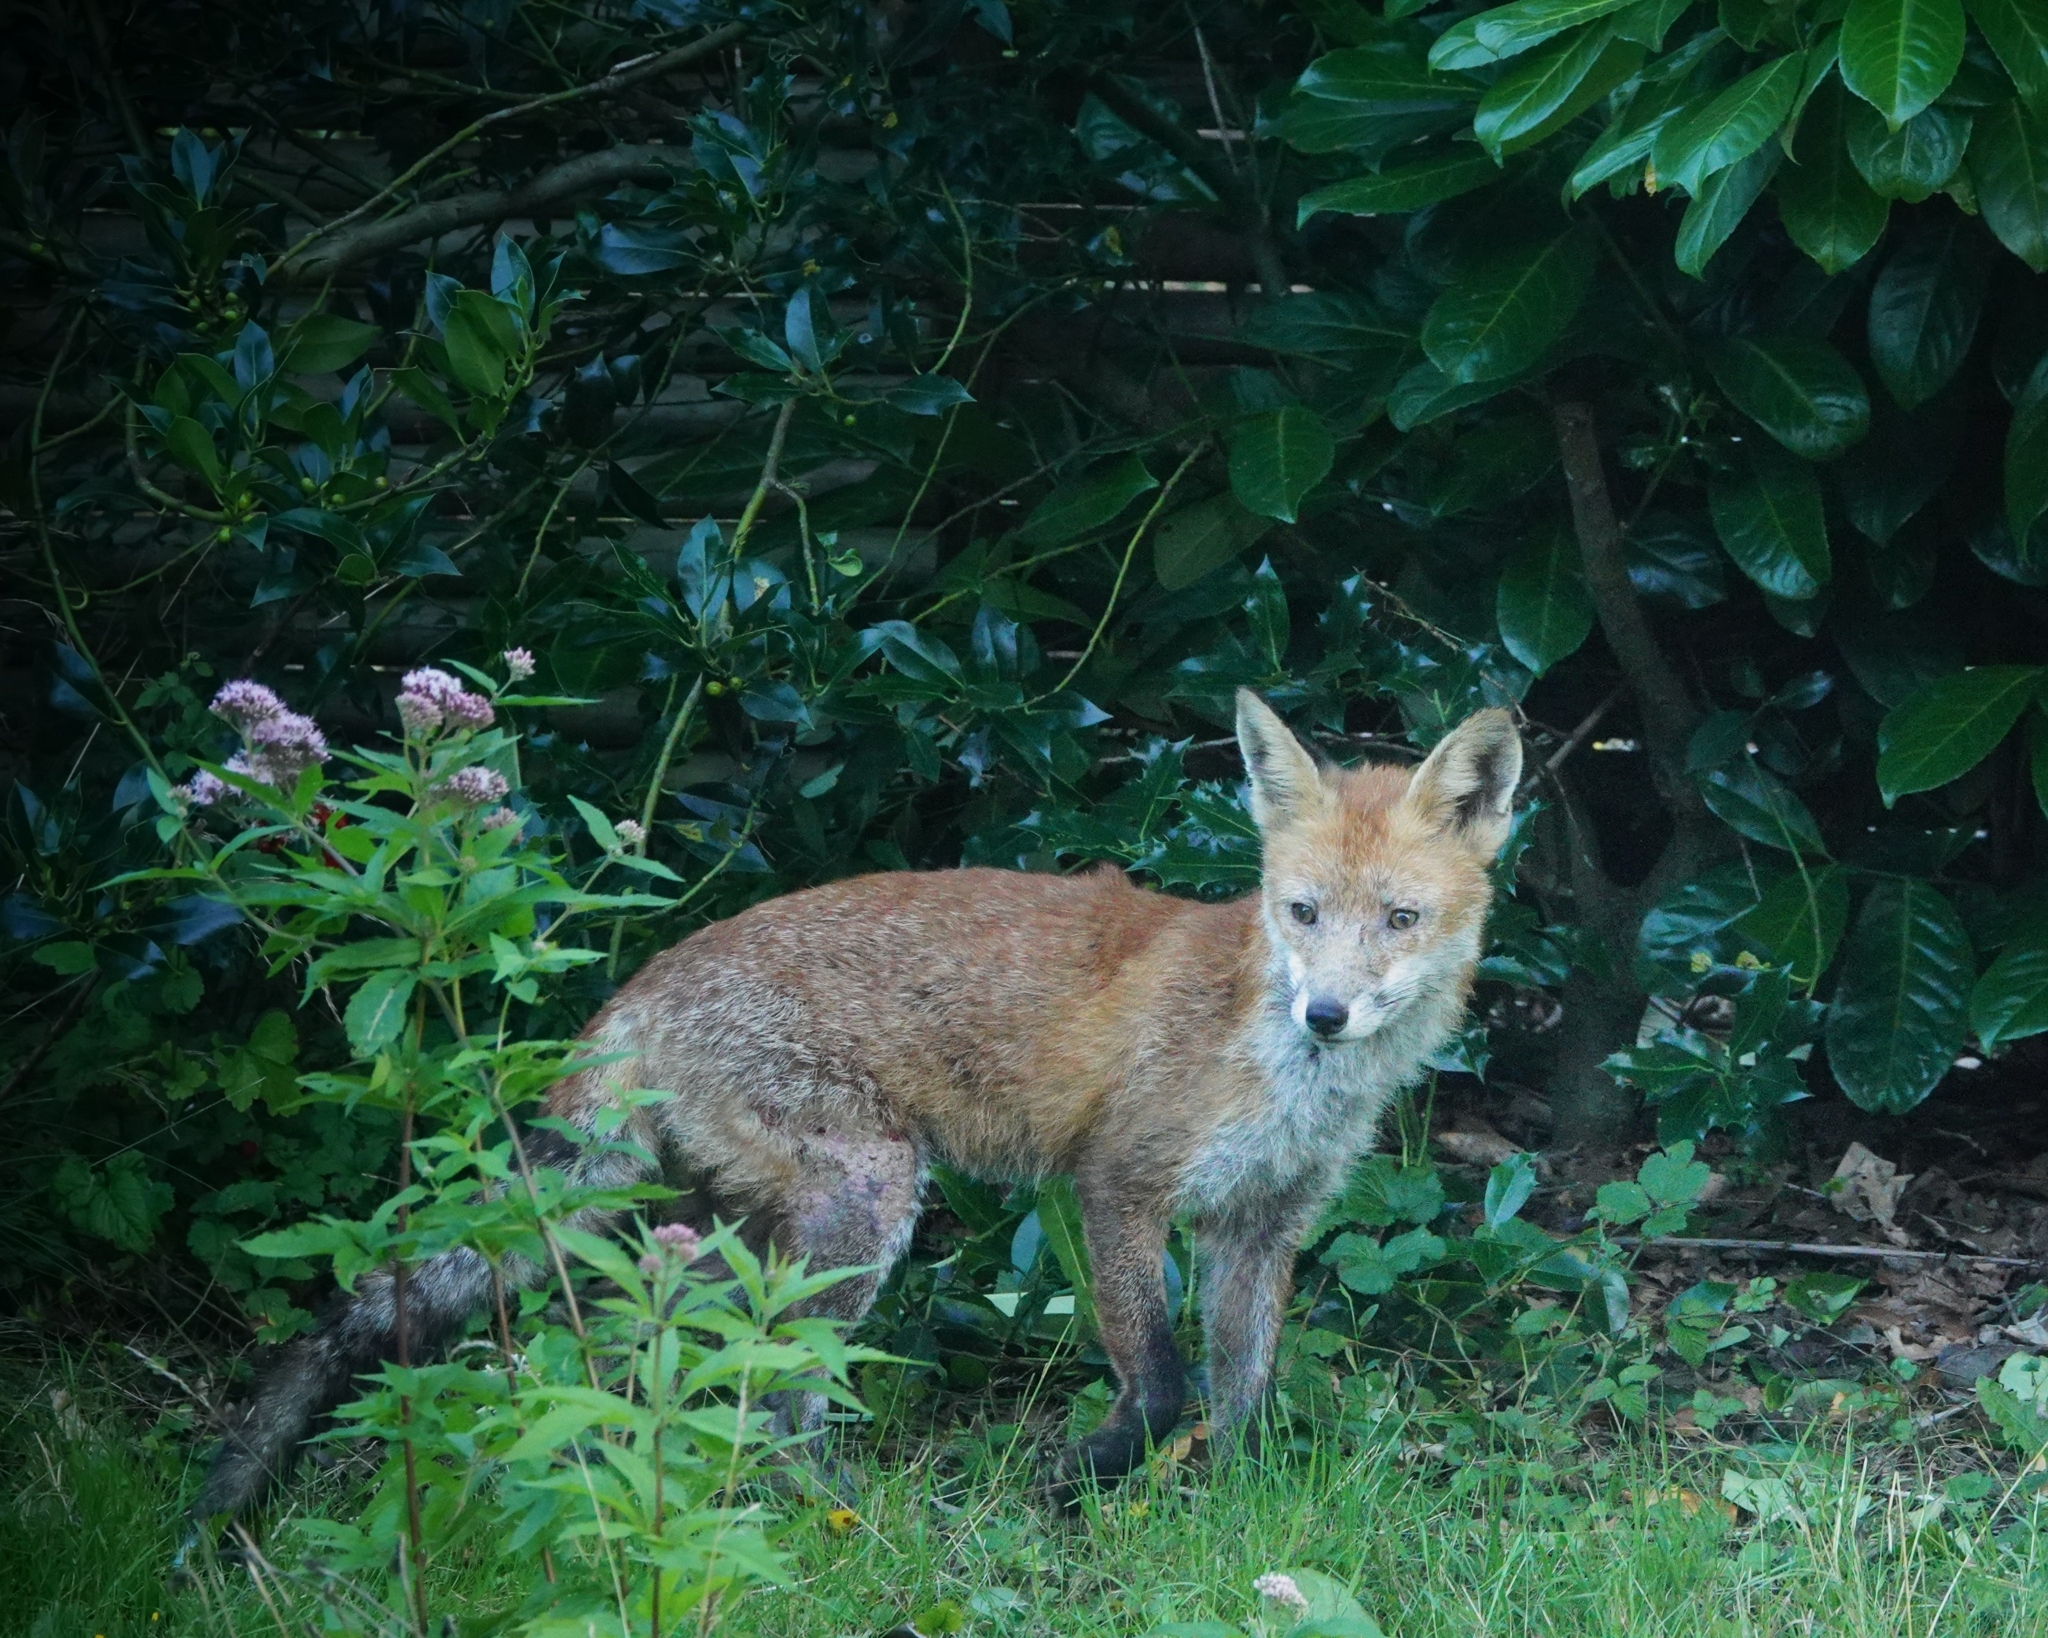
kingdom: Animalia
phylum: Chordata
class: Mammalia
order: Carnivora
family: Canidae
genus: Vulpes
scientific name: Vulpes vulpes
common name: Red fox
